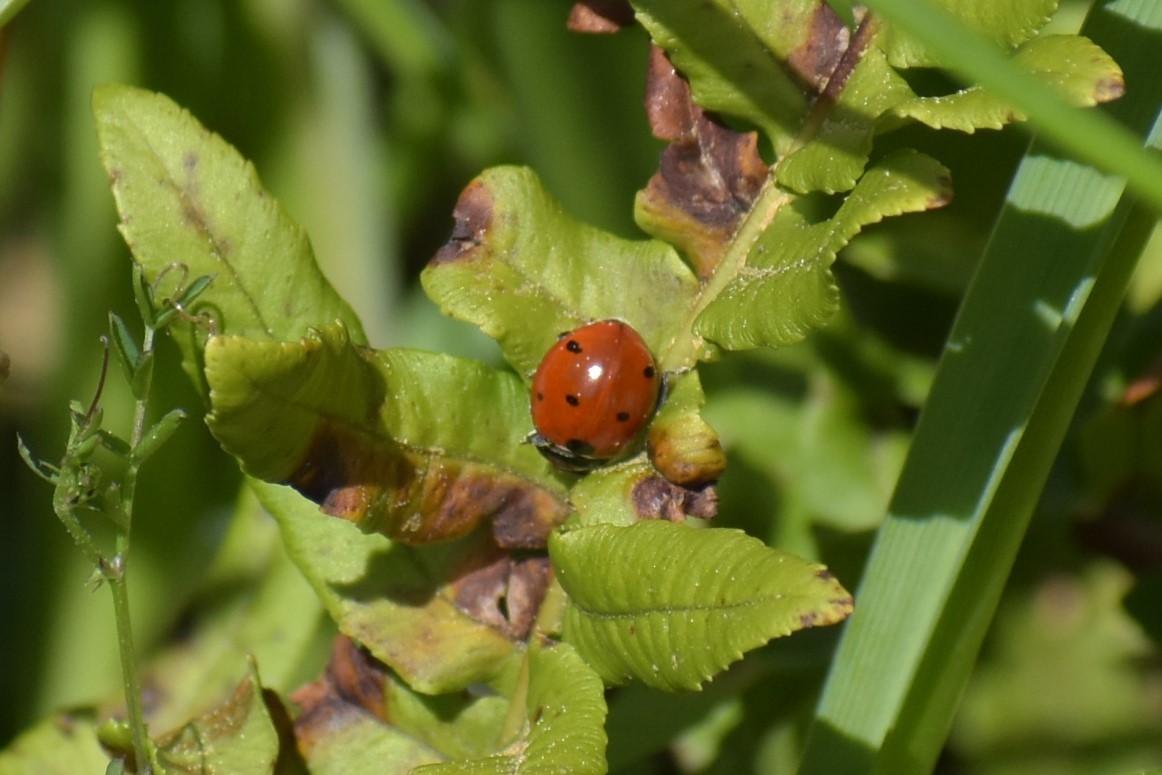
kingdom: Animalia
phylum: Arthropoda
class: Insecta
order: Coleoptera
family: Coccinellidae
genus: Coccinella
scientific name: Coccinella septempunctata
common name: Sevenspotted lady beetle
